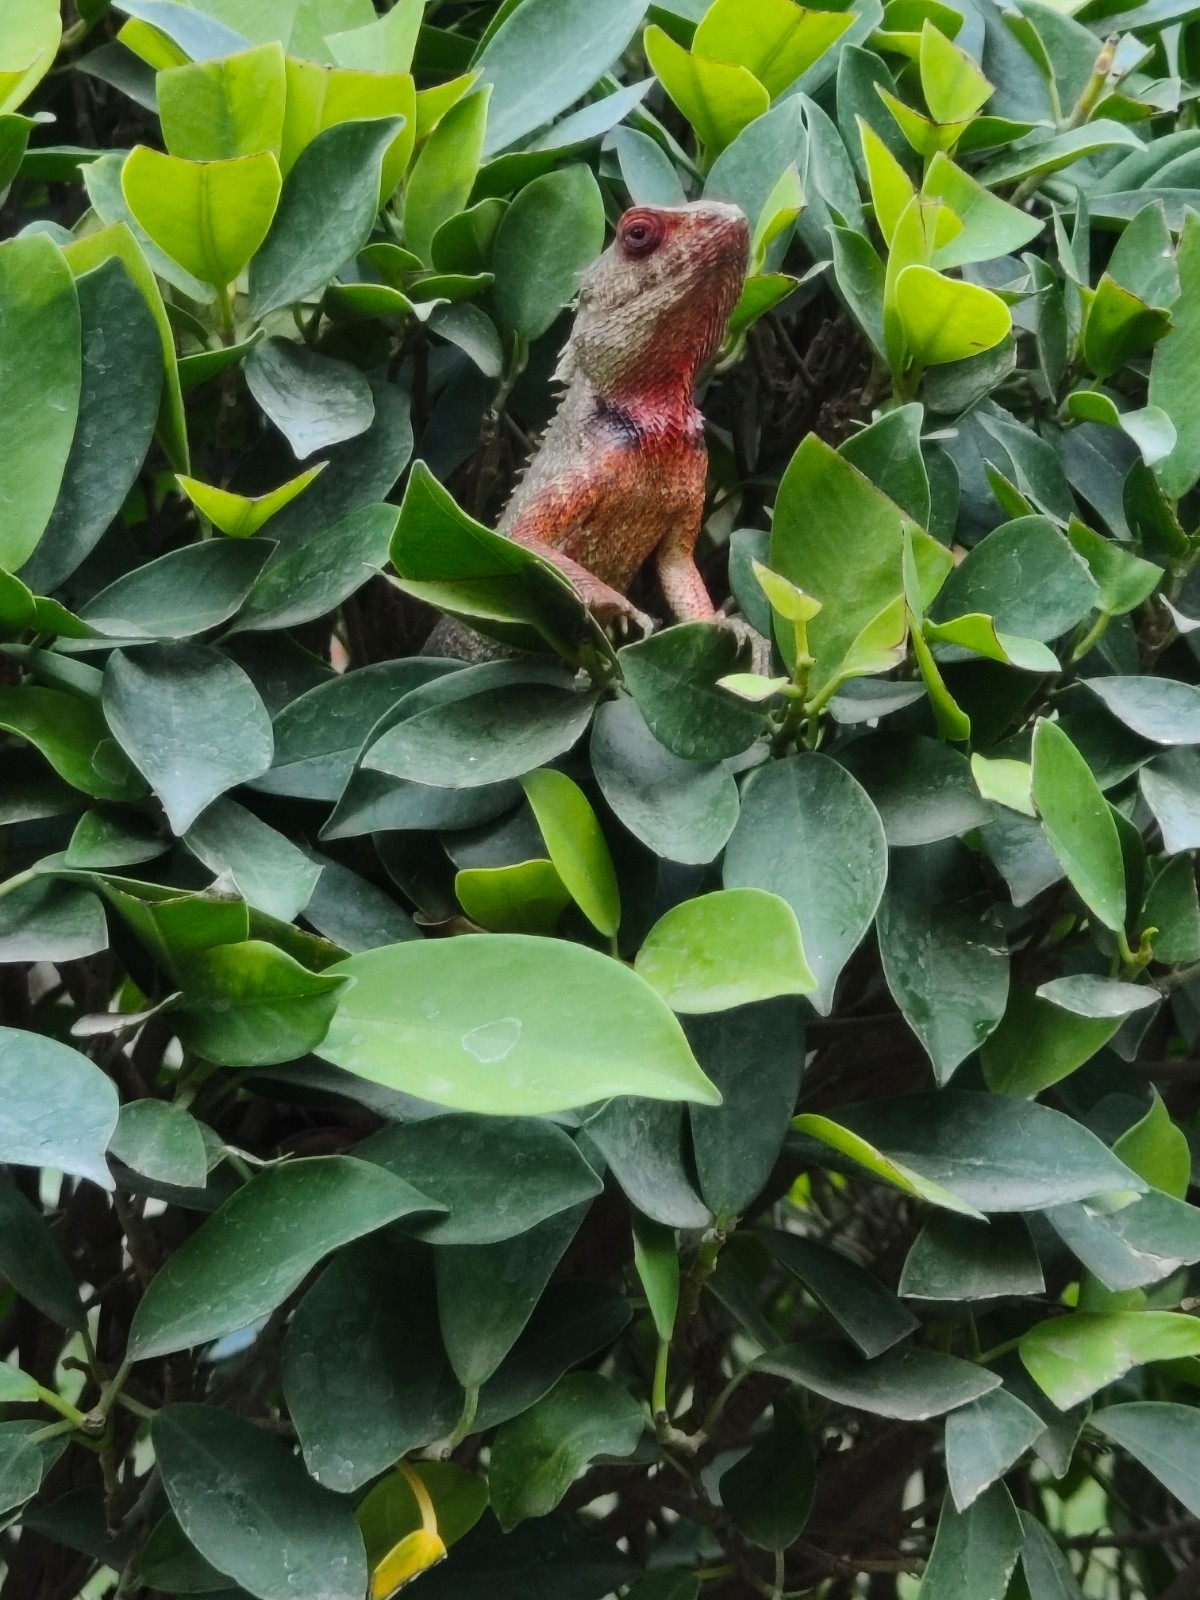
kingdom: Animalia
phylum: Chordata
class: Squamata
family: Agamidae
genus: Calotes
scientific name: Calotes versicolor
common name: Oriental garden lizard
